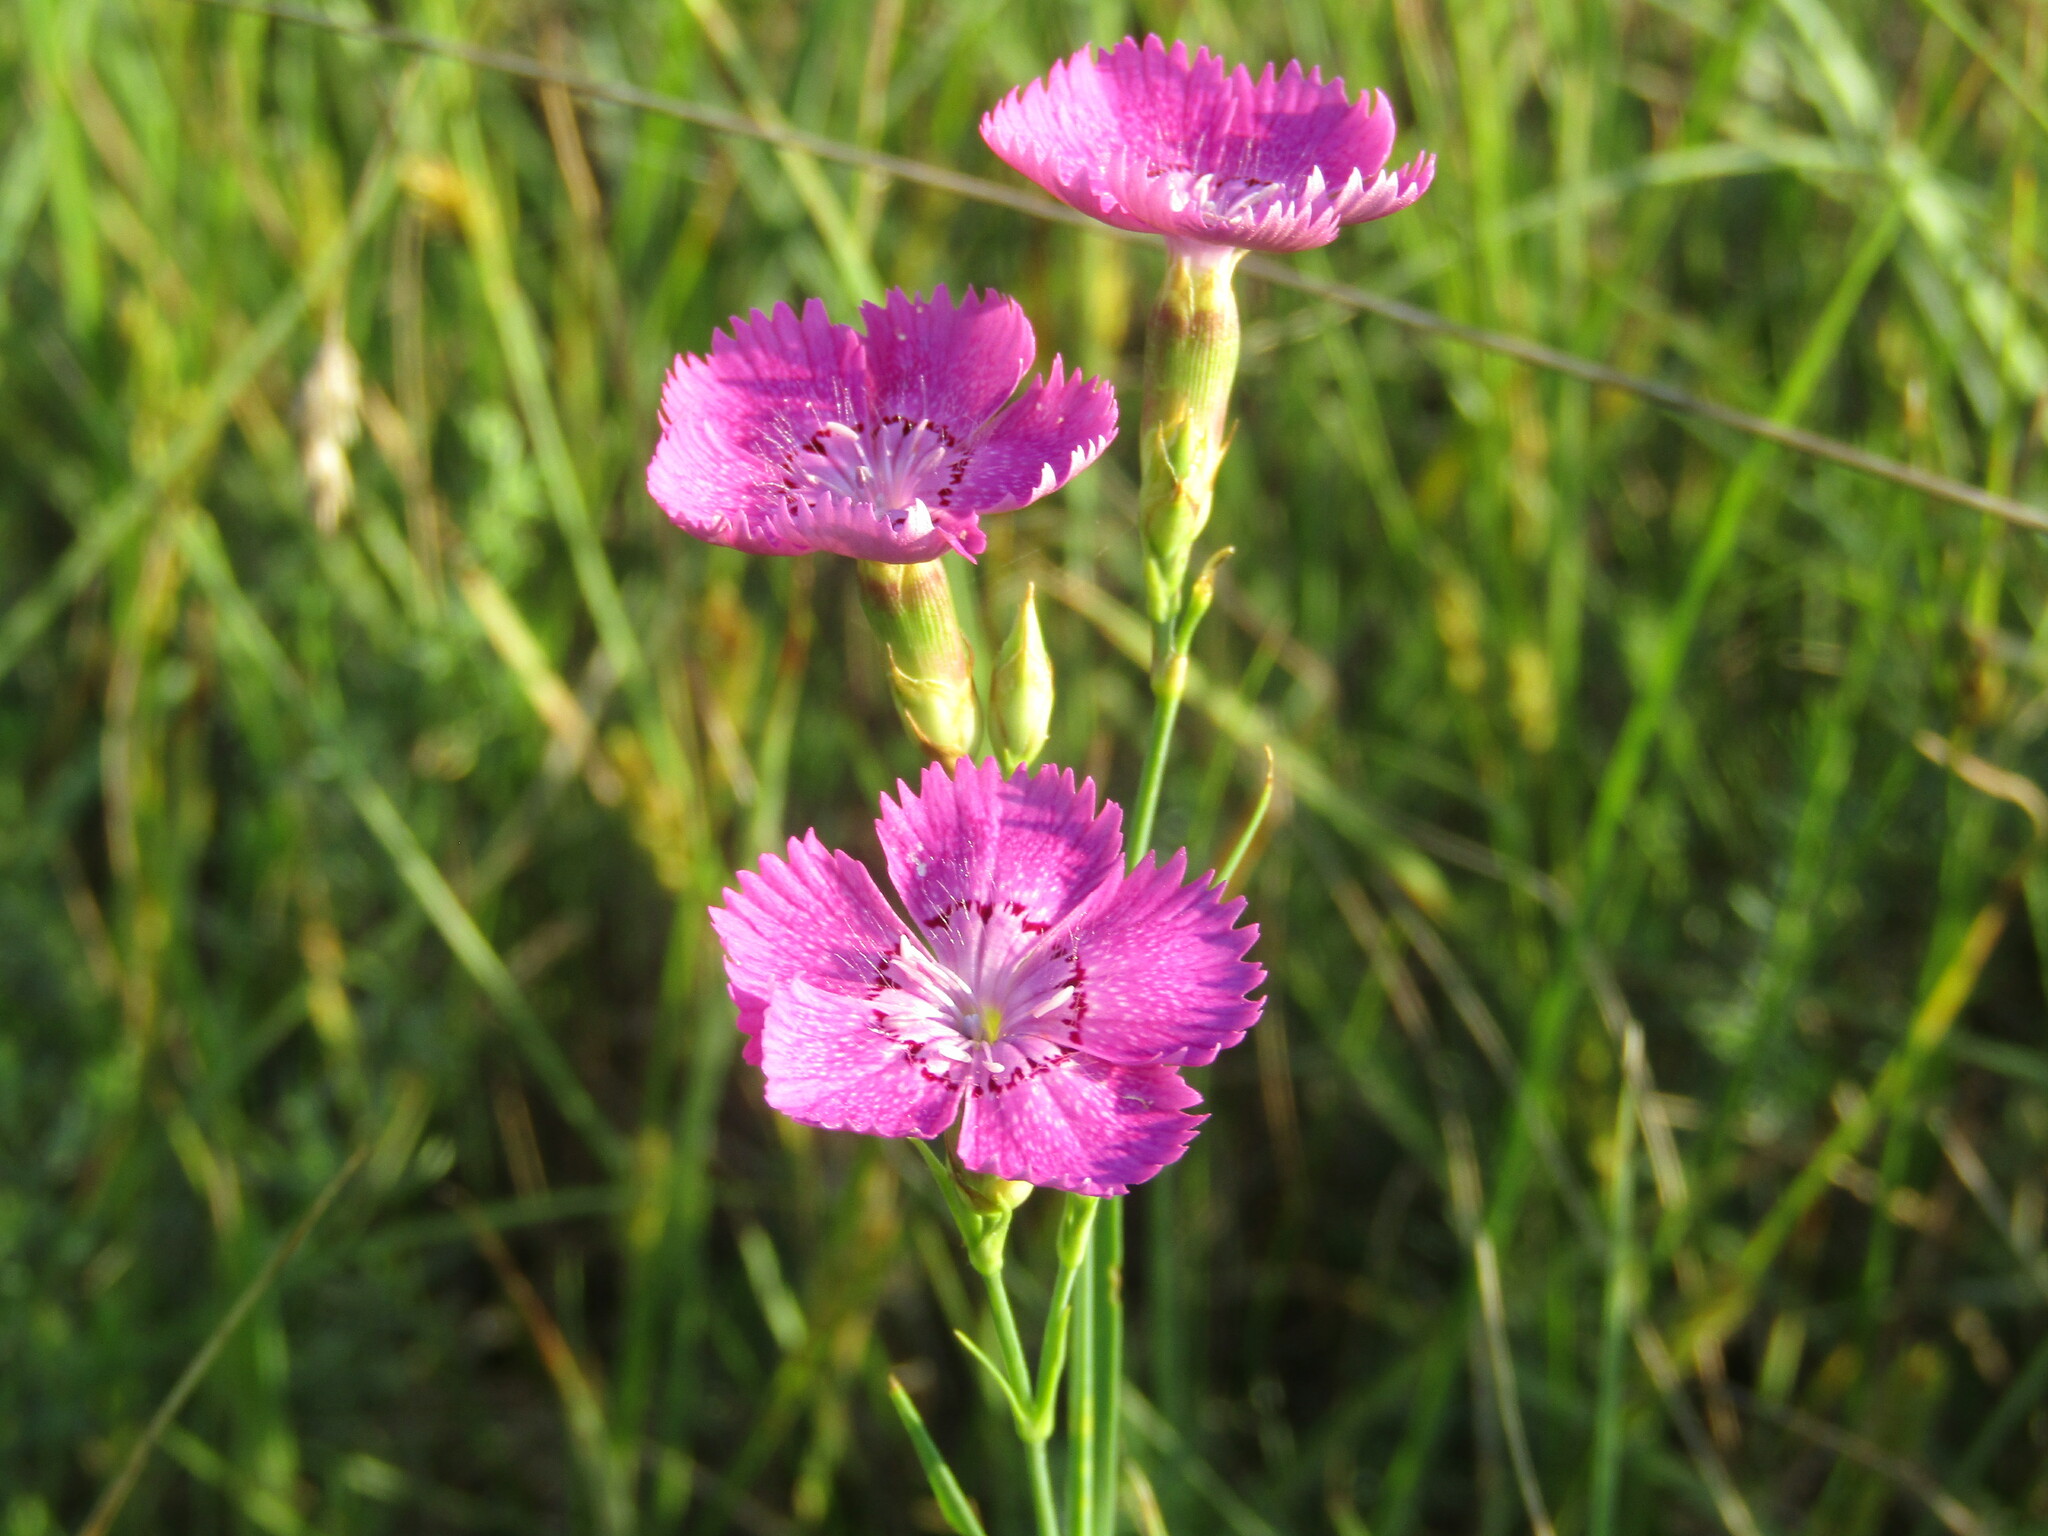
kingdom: Plantae
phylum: Tracheophyta
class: Magnoliopsida
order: Caryophyllales
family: Caryophyllaceae
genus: Dianthus
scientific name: Dianthus chinensis
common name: Rainbow pink
